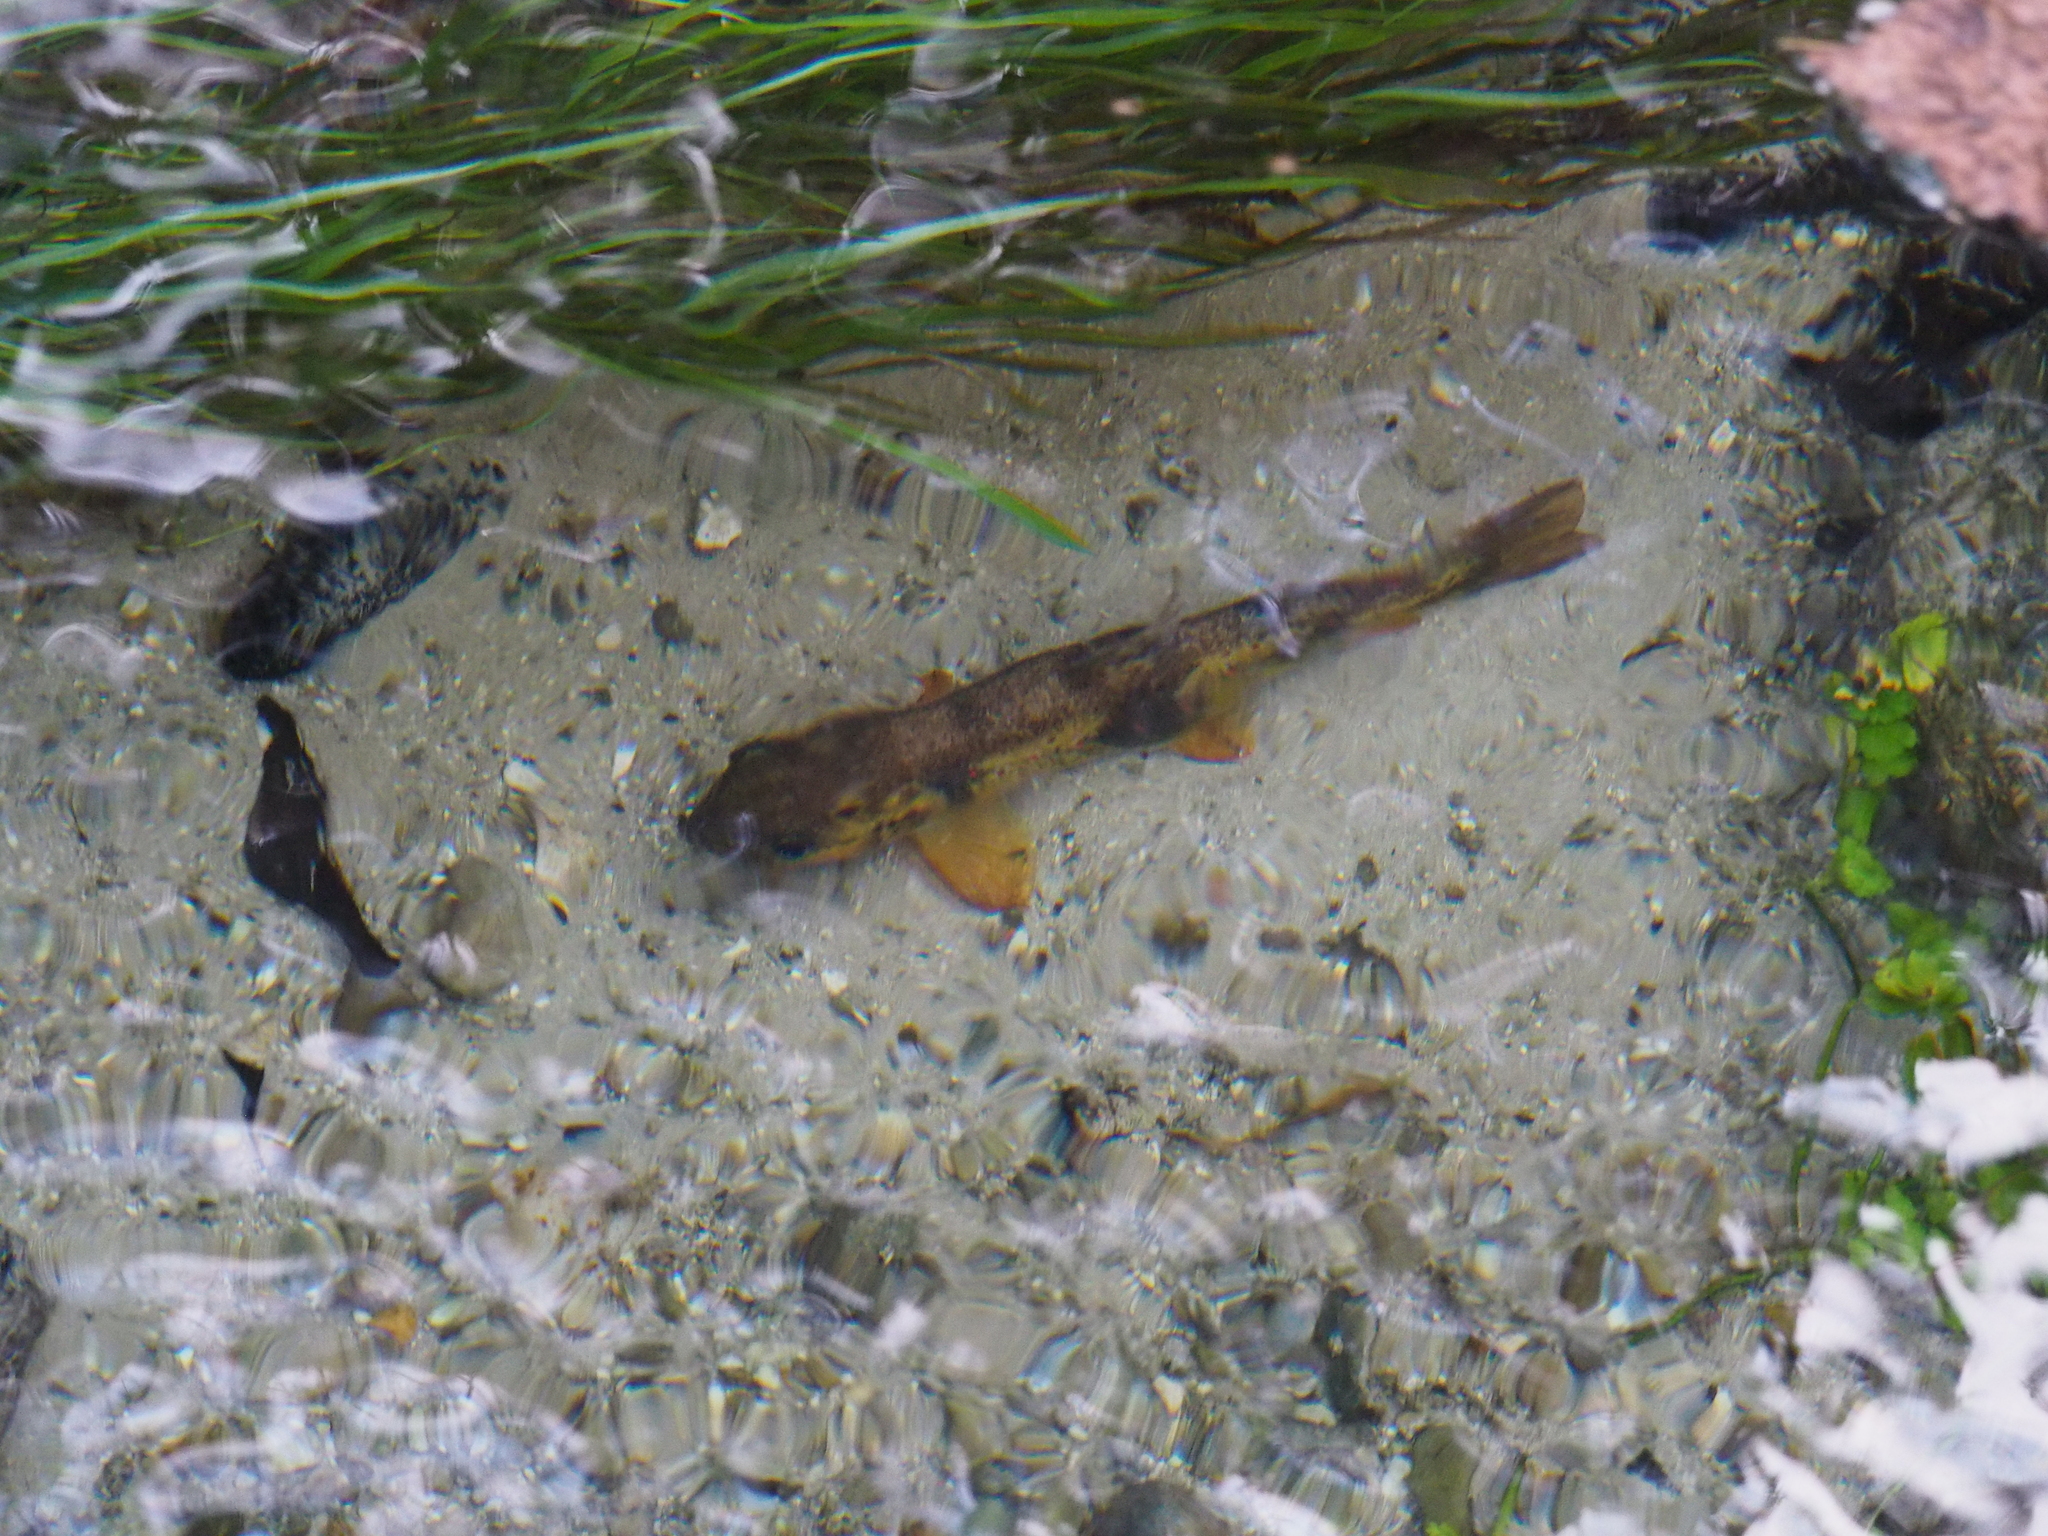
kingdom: Animalia
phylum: Chordata
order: Salmoniformes
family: Salmonidae
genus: Salmo
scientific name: Salmo trutta
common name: Brown trout
